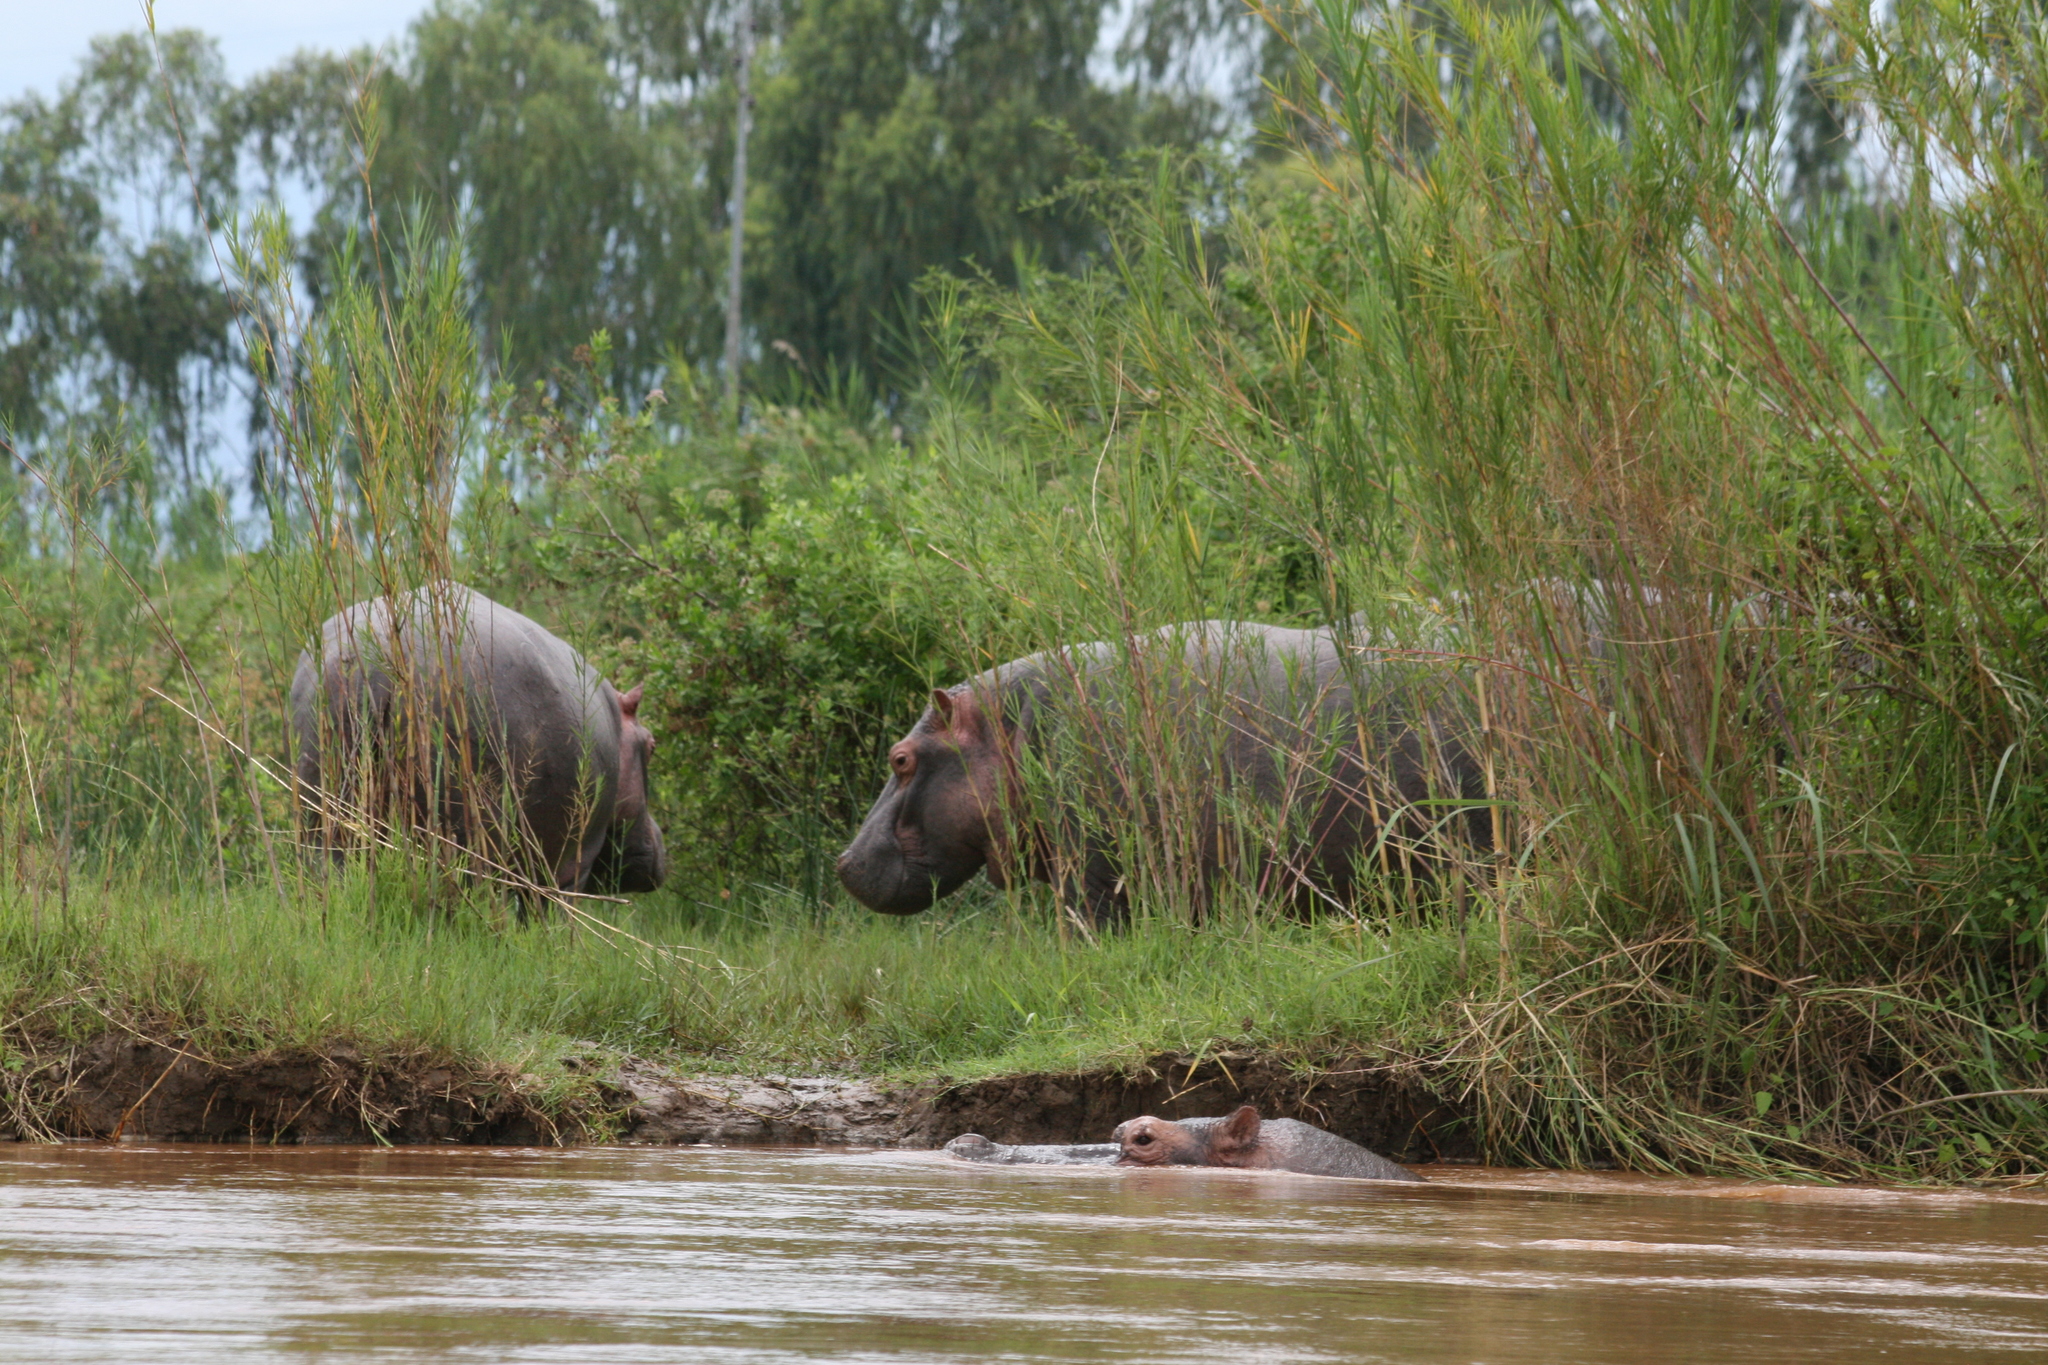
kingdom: Animalia
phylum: Chordata
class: Mammalia
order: Artiodactyla
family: Hippopotamidae
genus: Hippopotamus
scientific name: Hippopotamus amphibius
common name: Common hippopotamus
